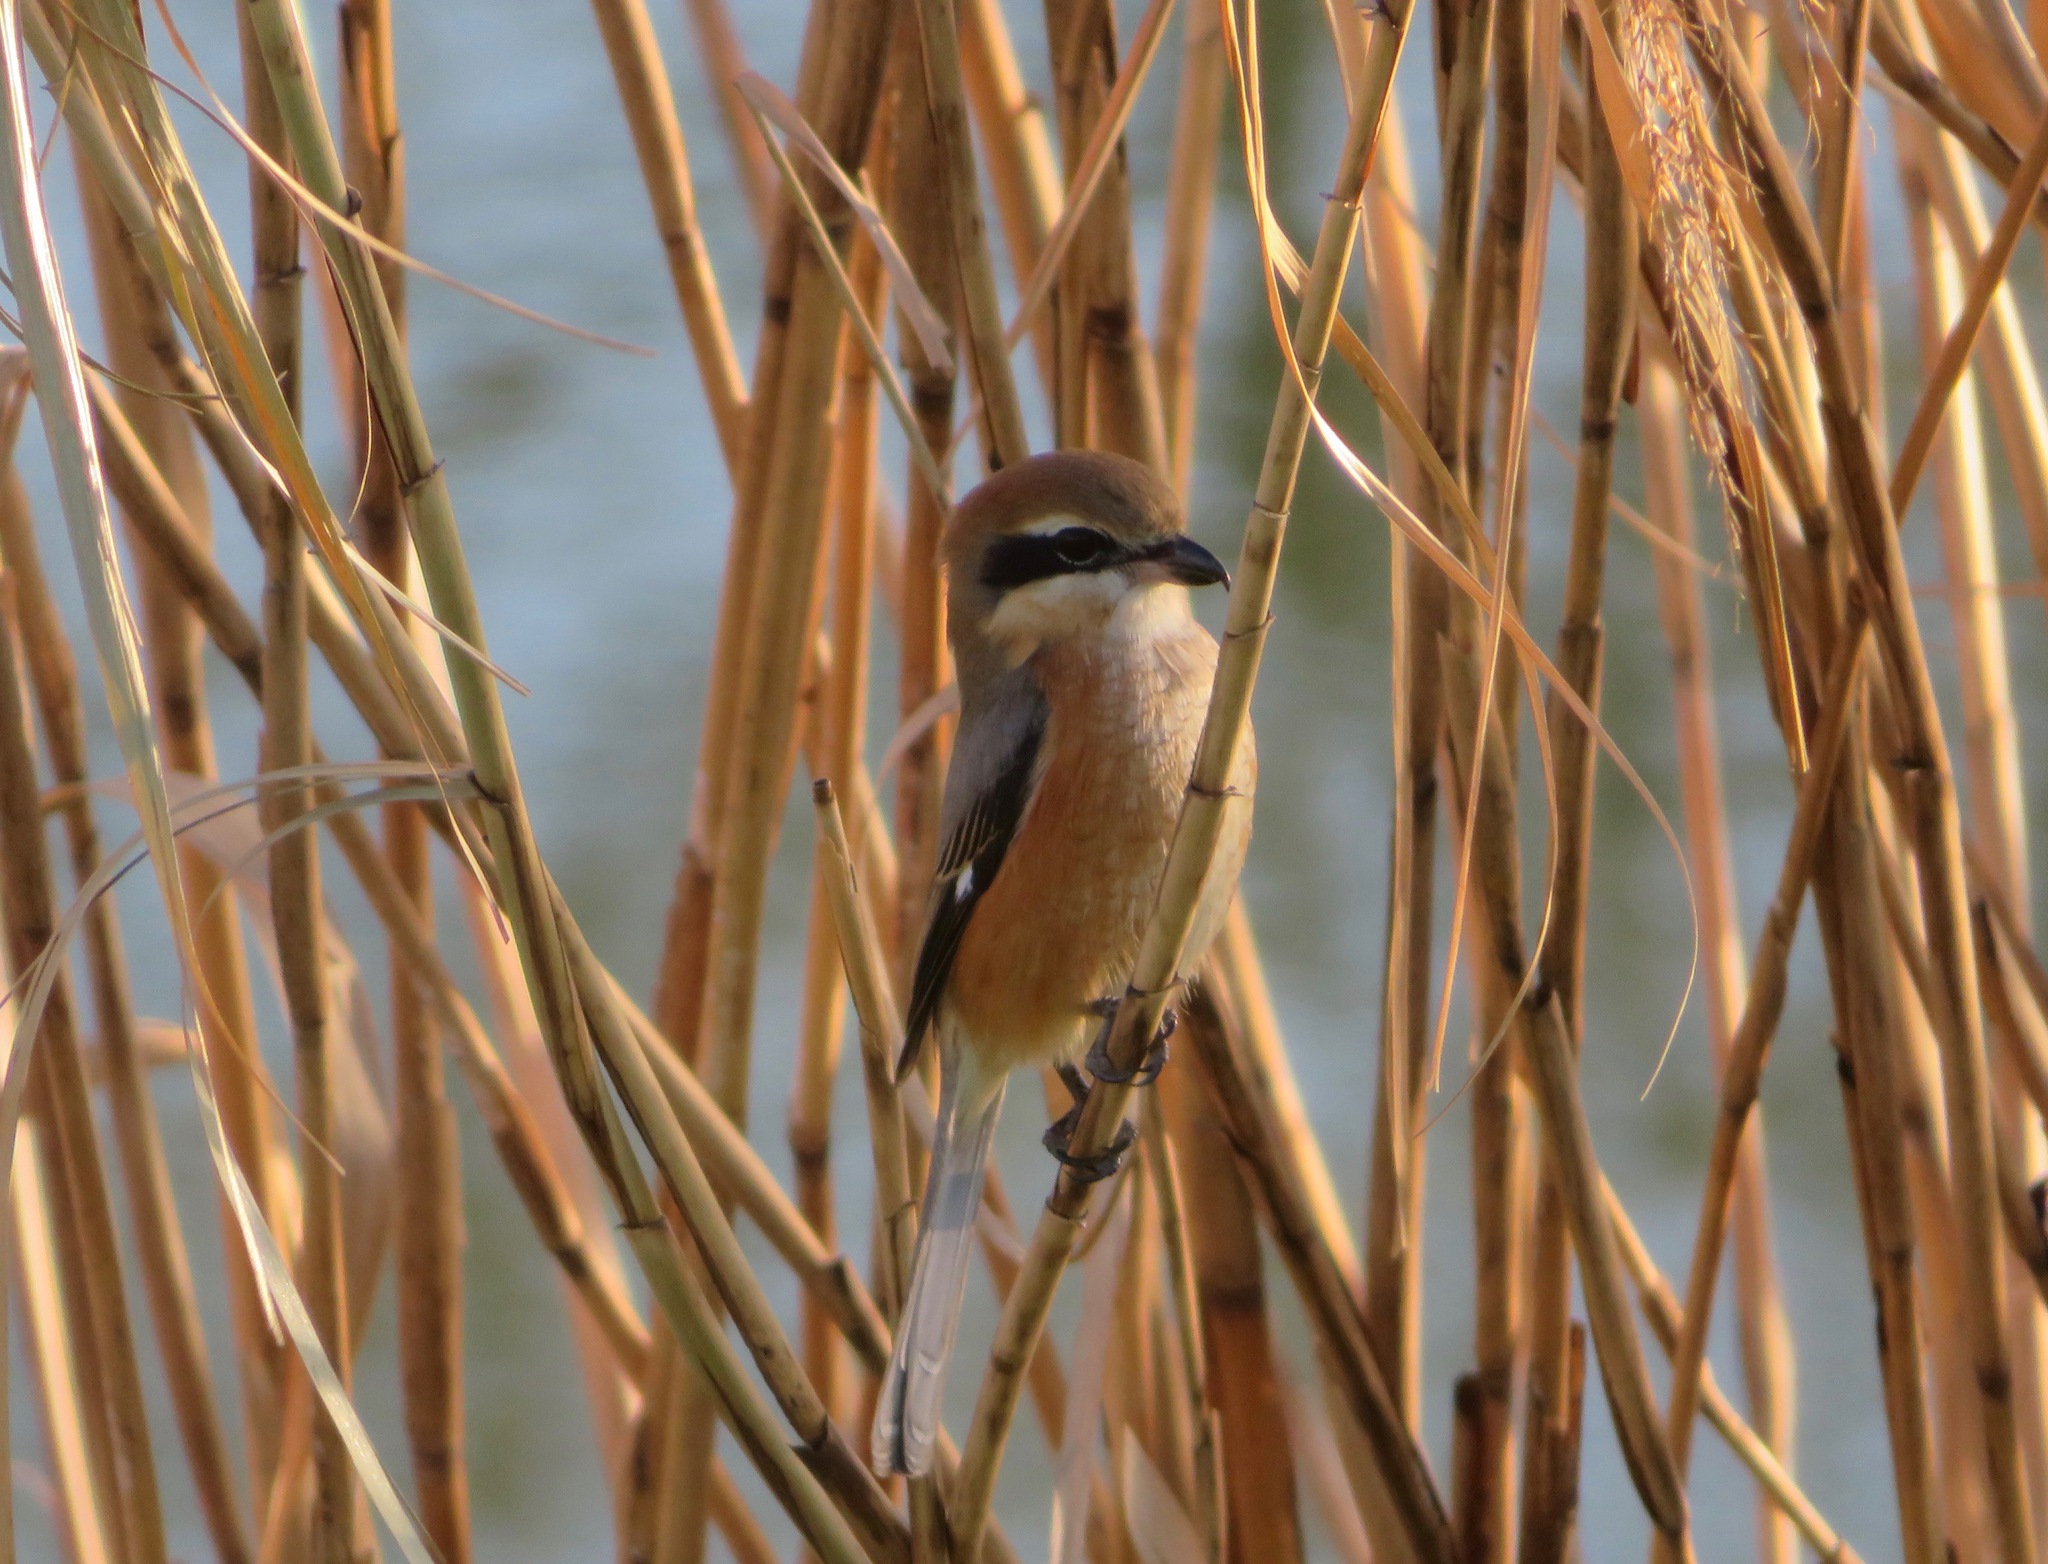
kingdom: Animalia
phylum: Chordata
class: Aves
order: Passeriformes
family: Laniidae
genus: Lanius
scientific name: Lanius bucephalus
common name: Bull-headed shrike
